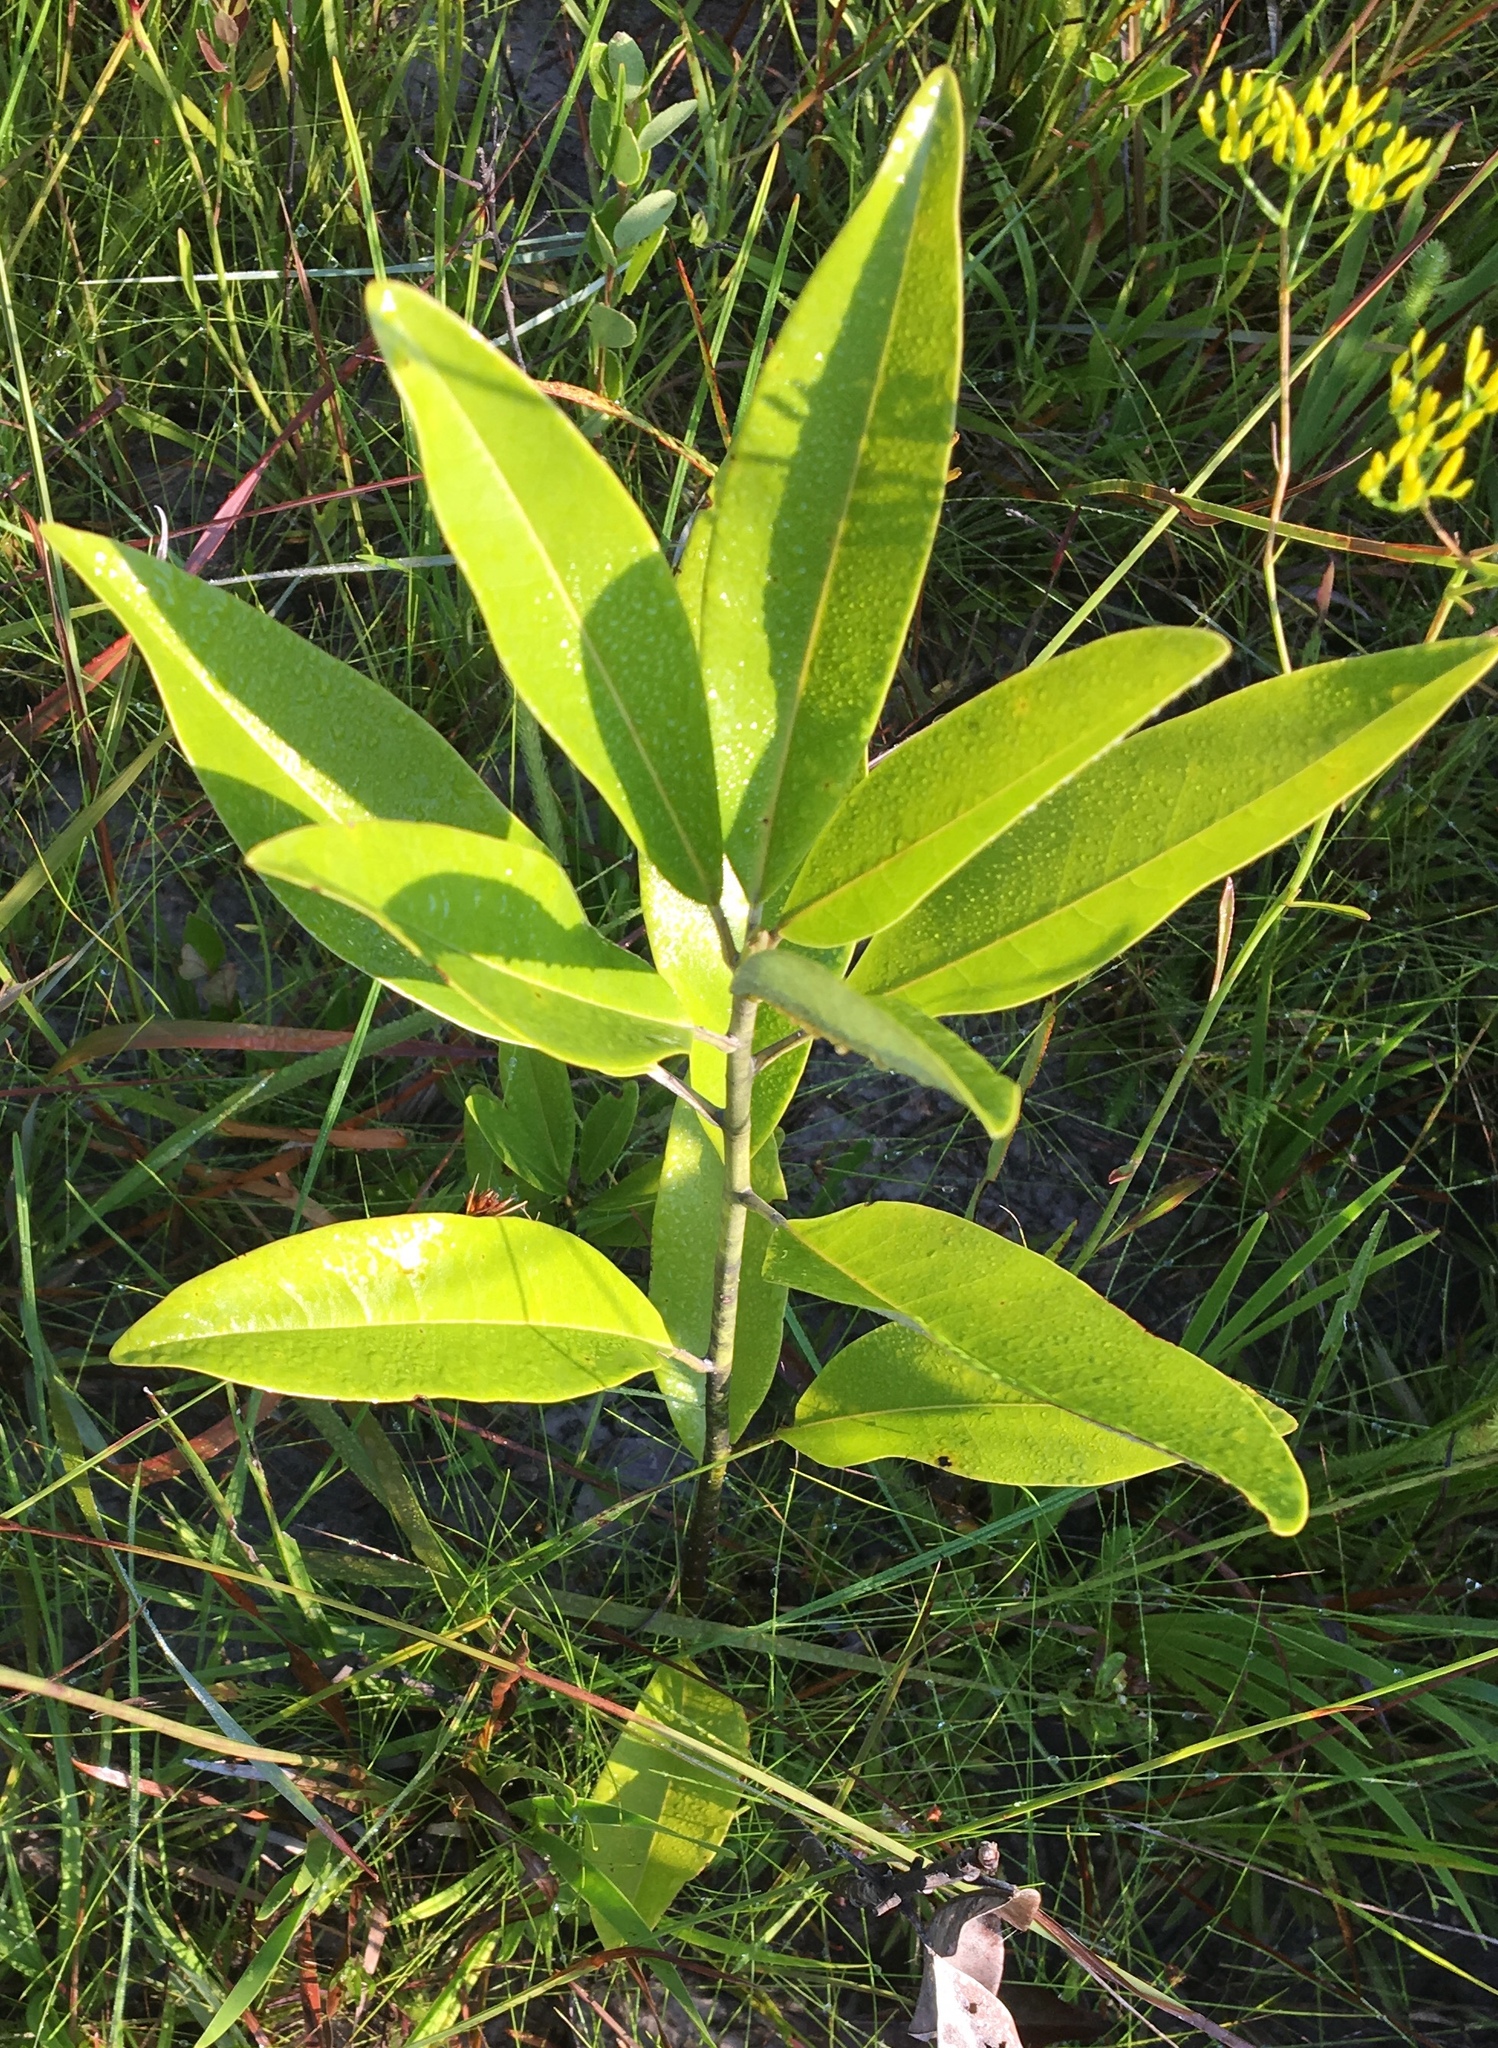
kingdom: Plantae
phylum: Tracheophyta
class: Magnoliopsida
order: Magnoliales
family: Magnoliaceae
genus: Magnolia
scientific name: Magnolia virginiana
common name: Swamp bay
